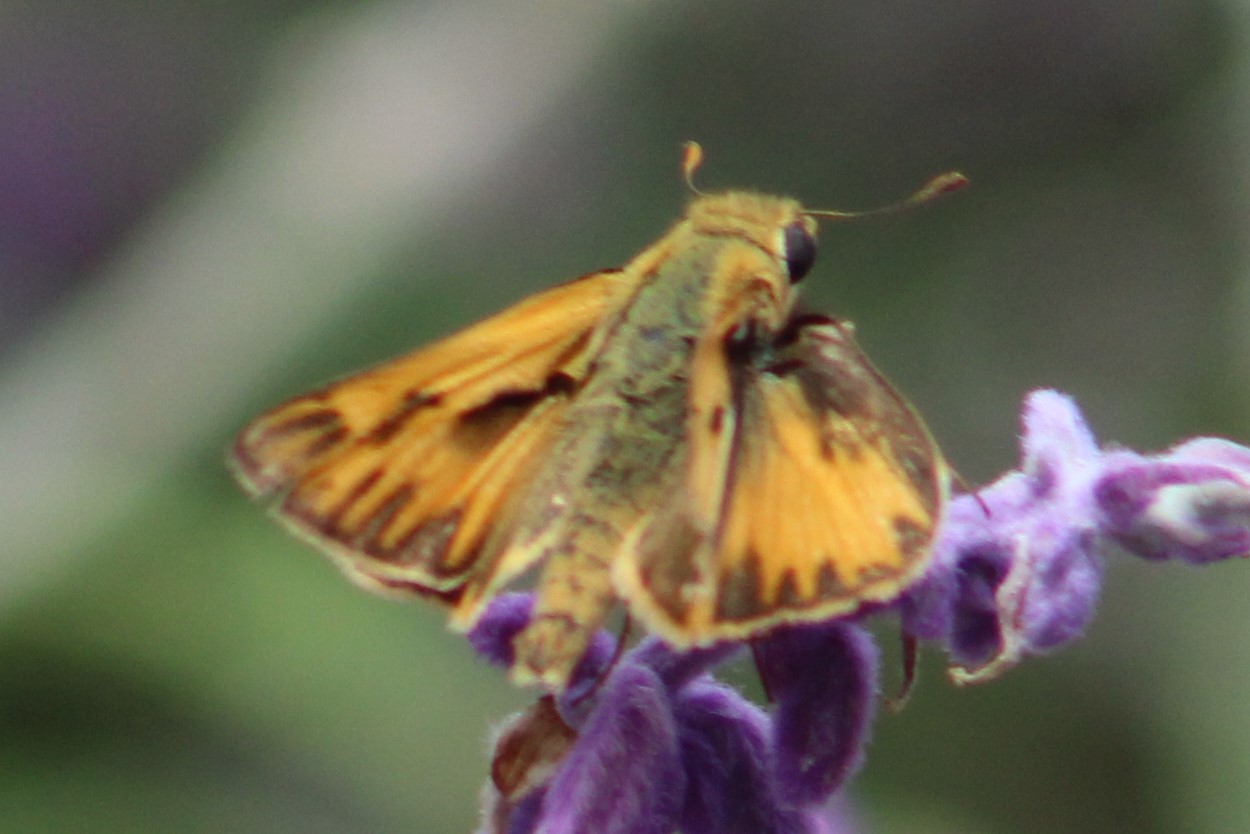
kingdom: Animalia
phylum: Arthropoda
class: Insecta
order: Lepidoptera
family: Hesperiidae
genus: Hylephila
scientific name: Hylephila phyleus
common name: Fiery skipper
